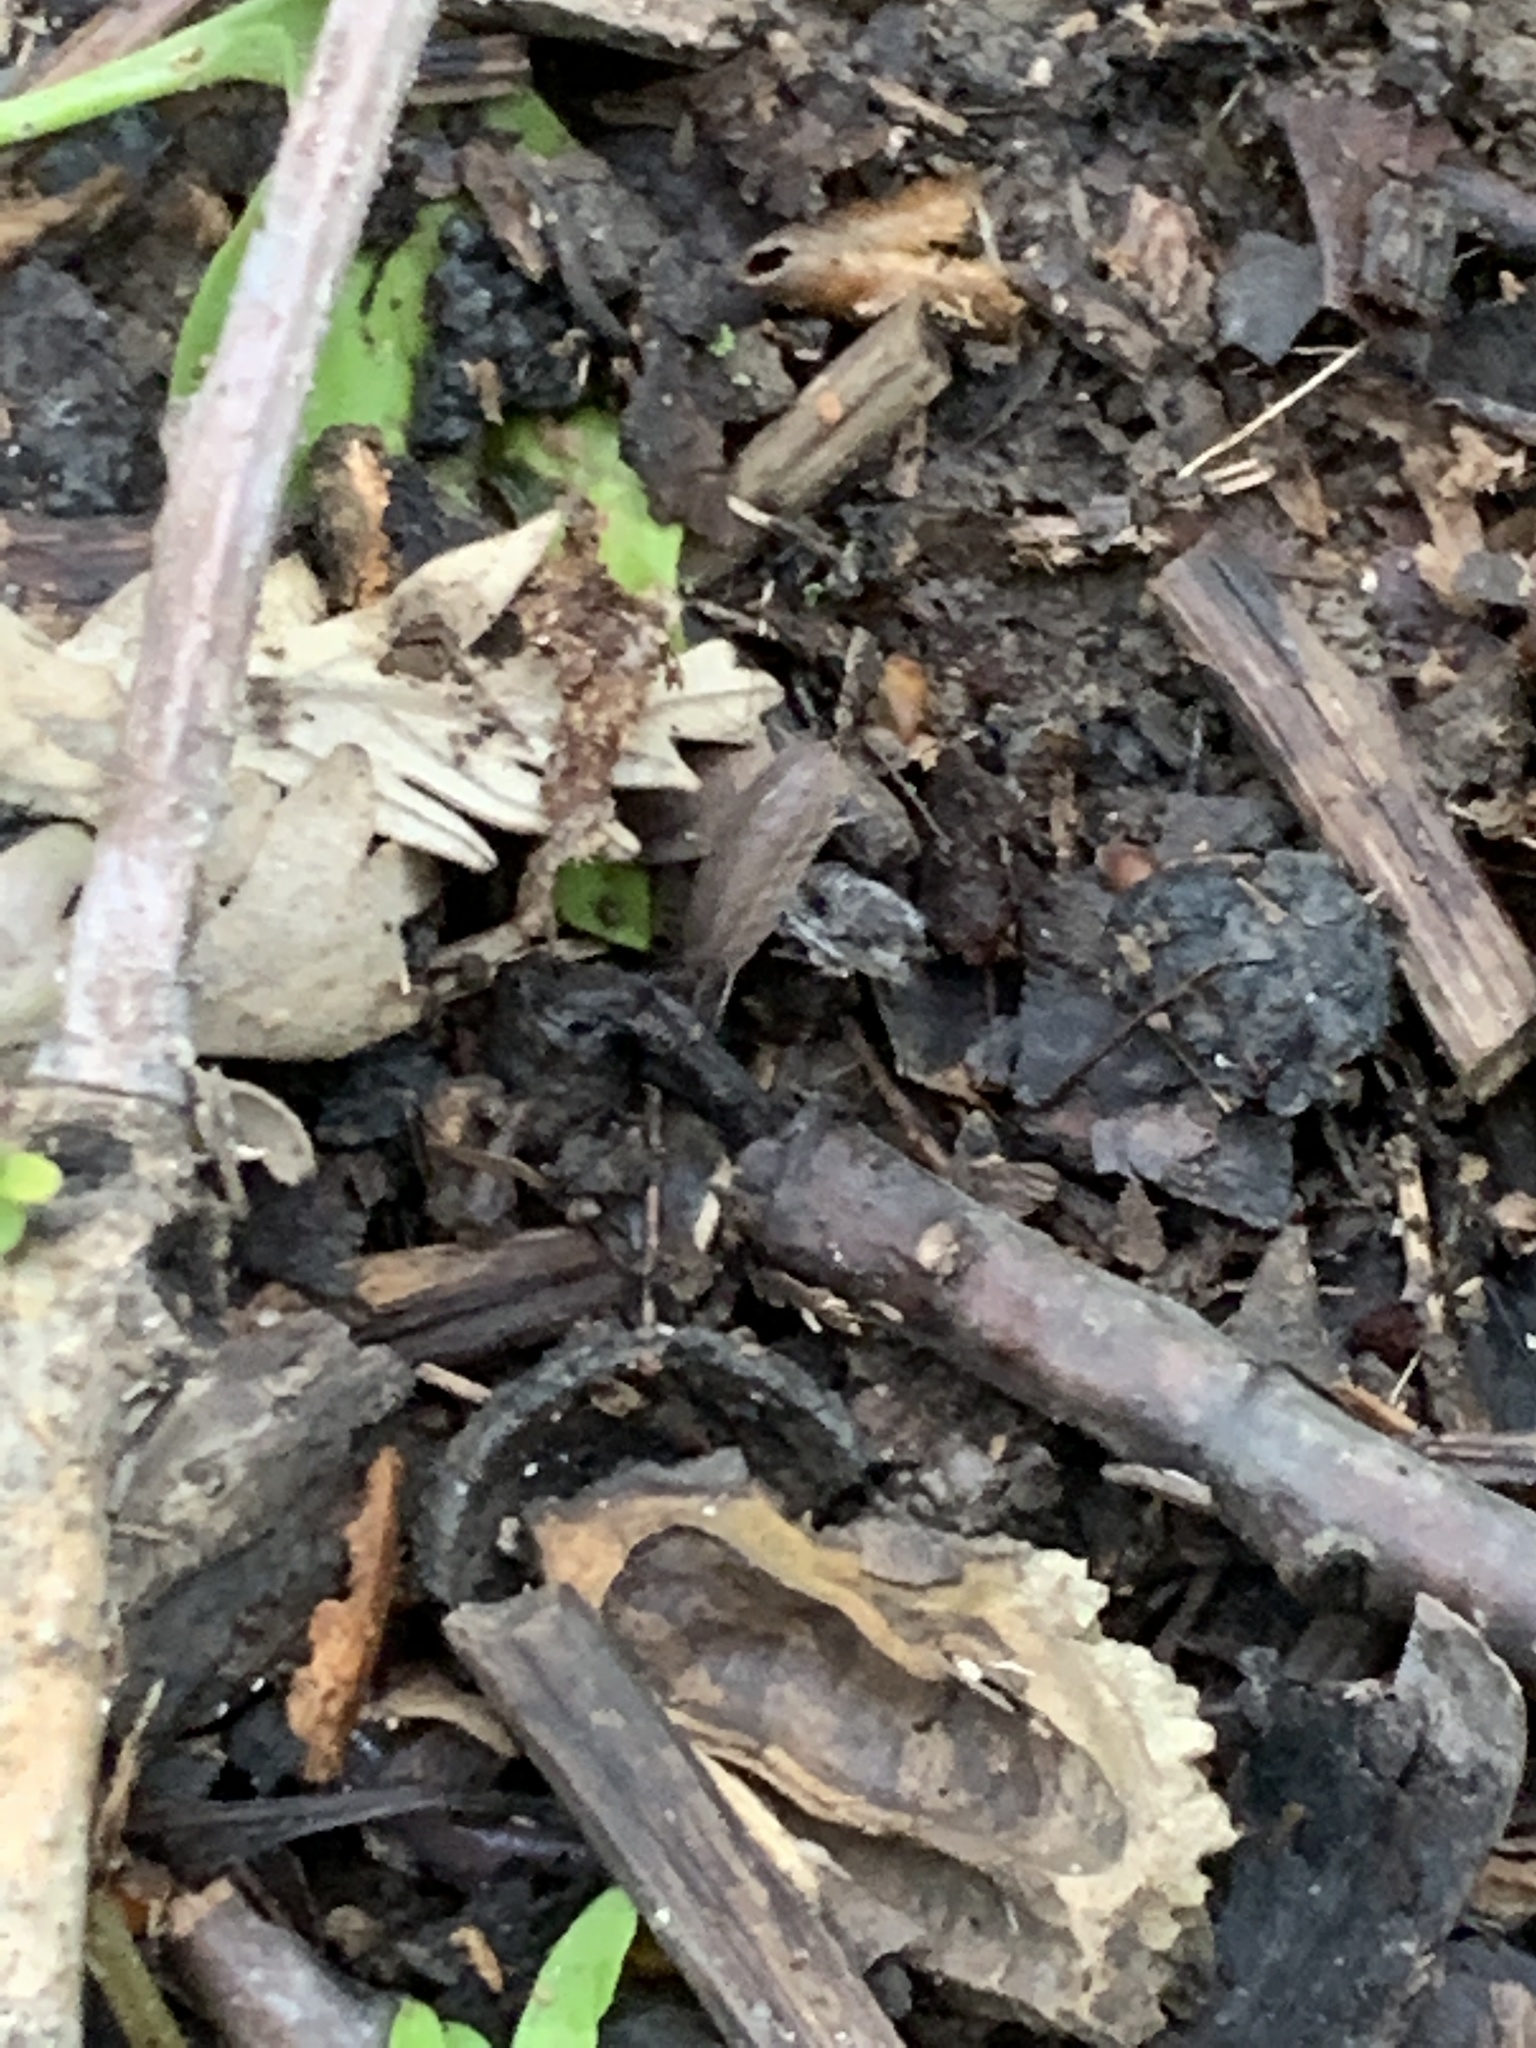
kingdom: Animalia
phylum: Arthropoda
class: Malacostraca
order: Isopoda
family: Trachelipodidae
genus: Trachelipus
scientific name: Trachelipus rathkii
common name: Isopod
